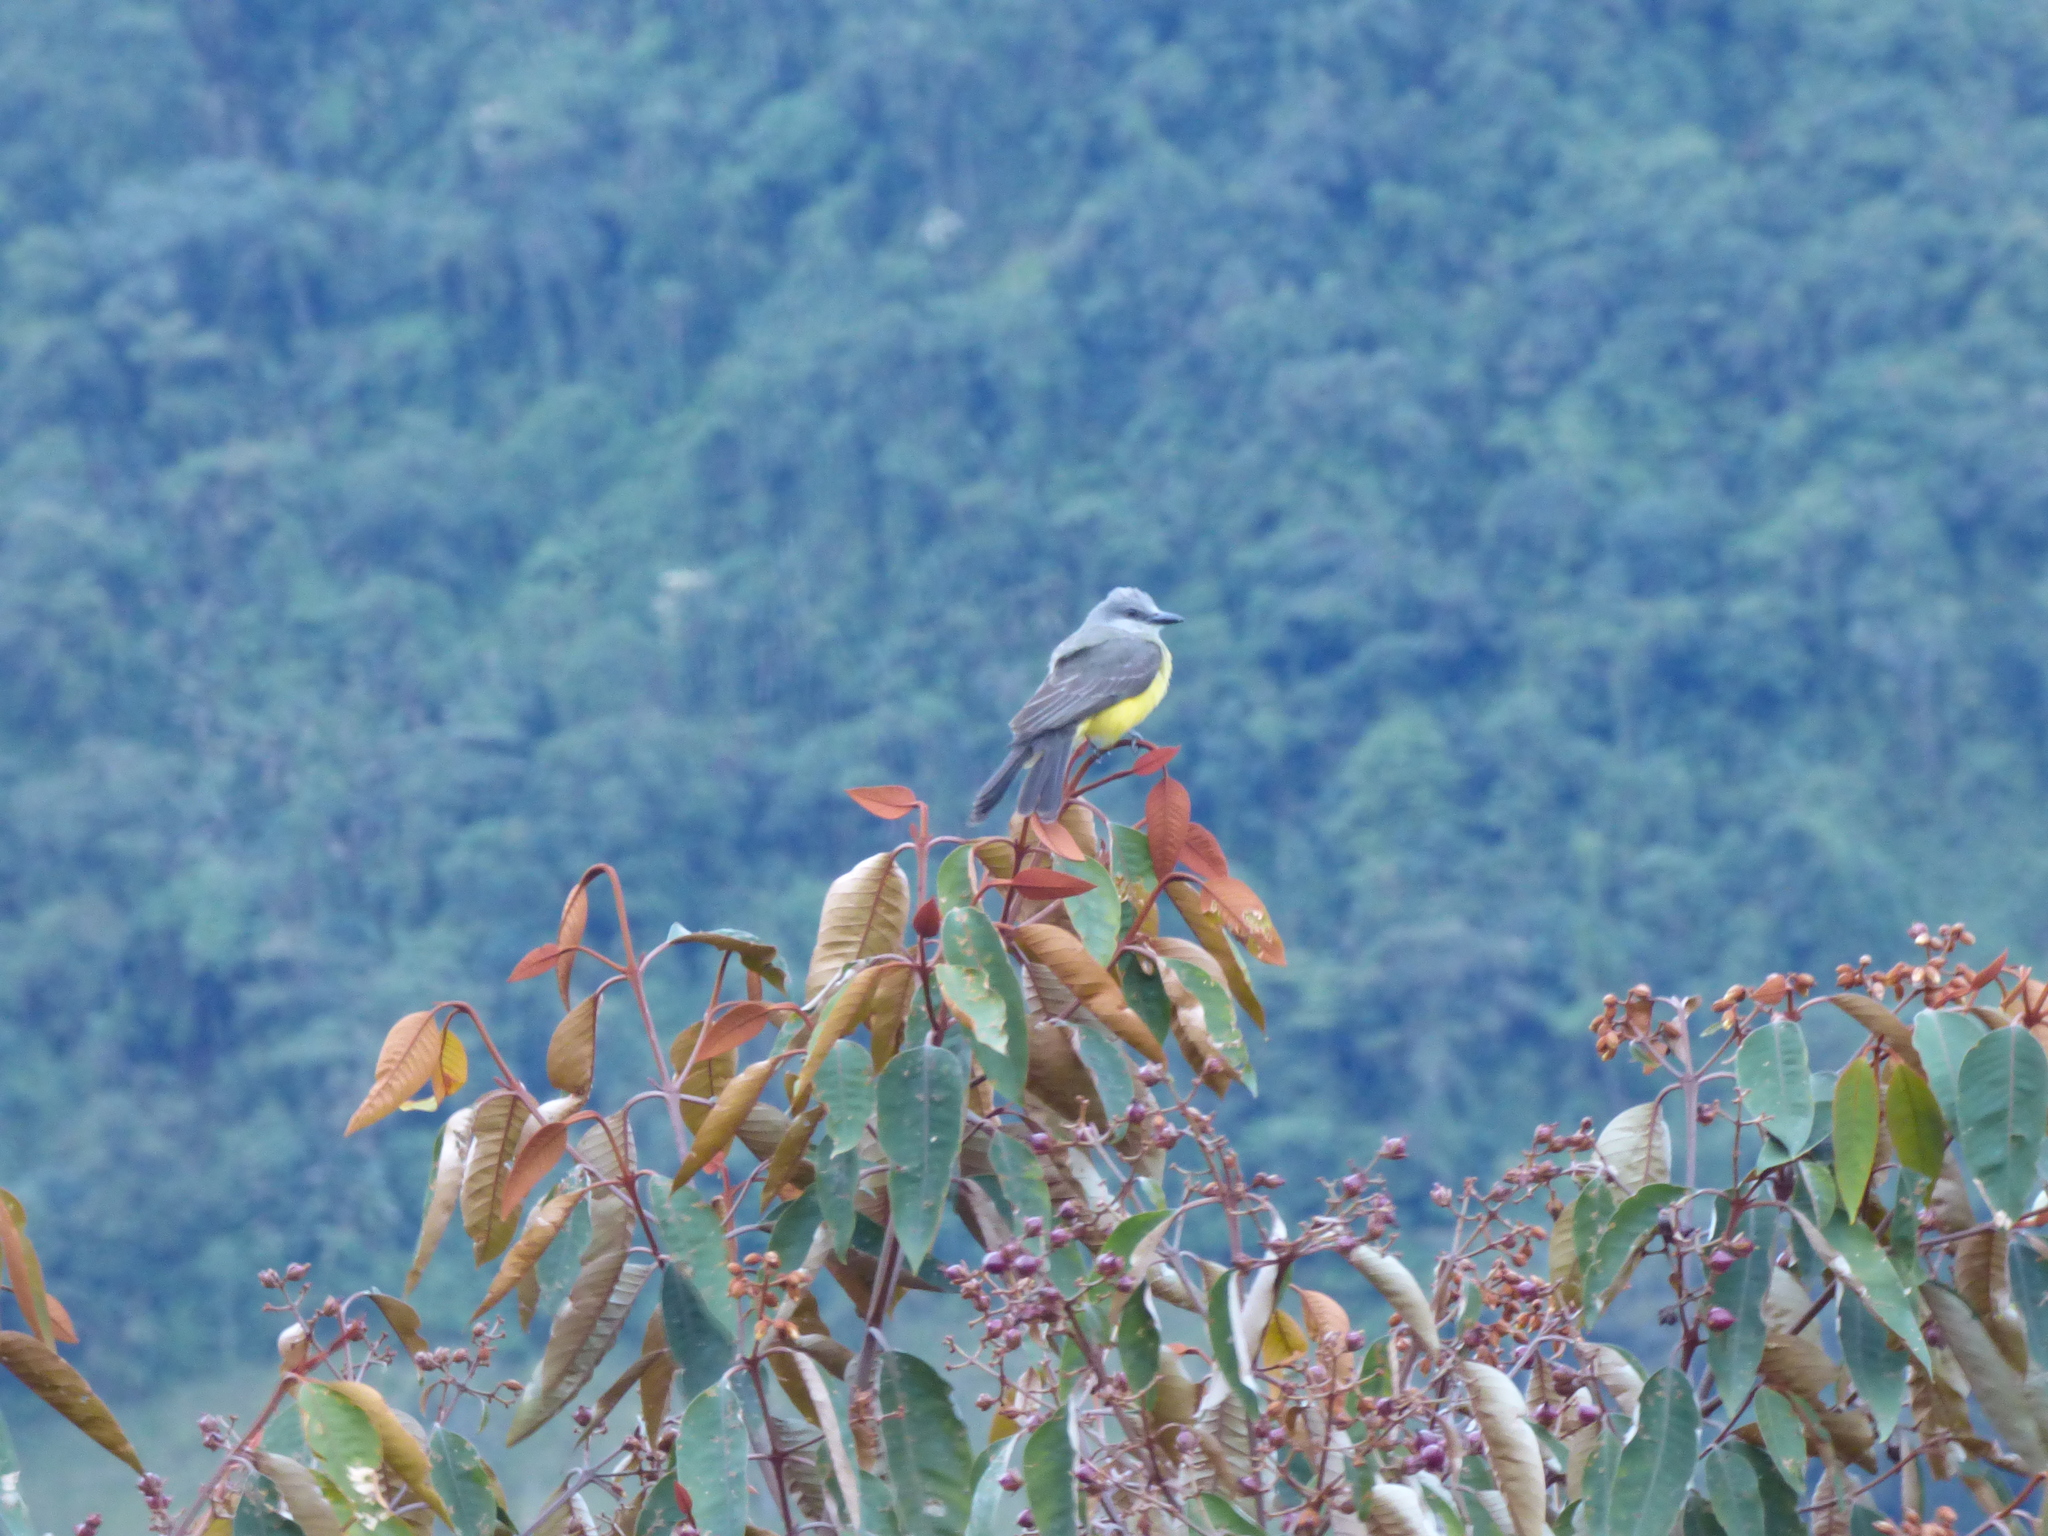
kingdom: Animalia
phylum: Chordata
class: Aves
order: Passeriformes
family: Tyrannidae
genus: Tyrannus
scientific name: Tyrannus melancholicus
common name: Tropical kingbird
